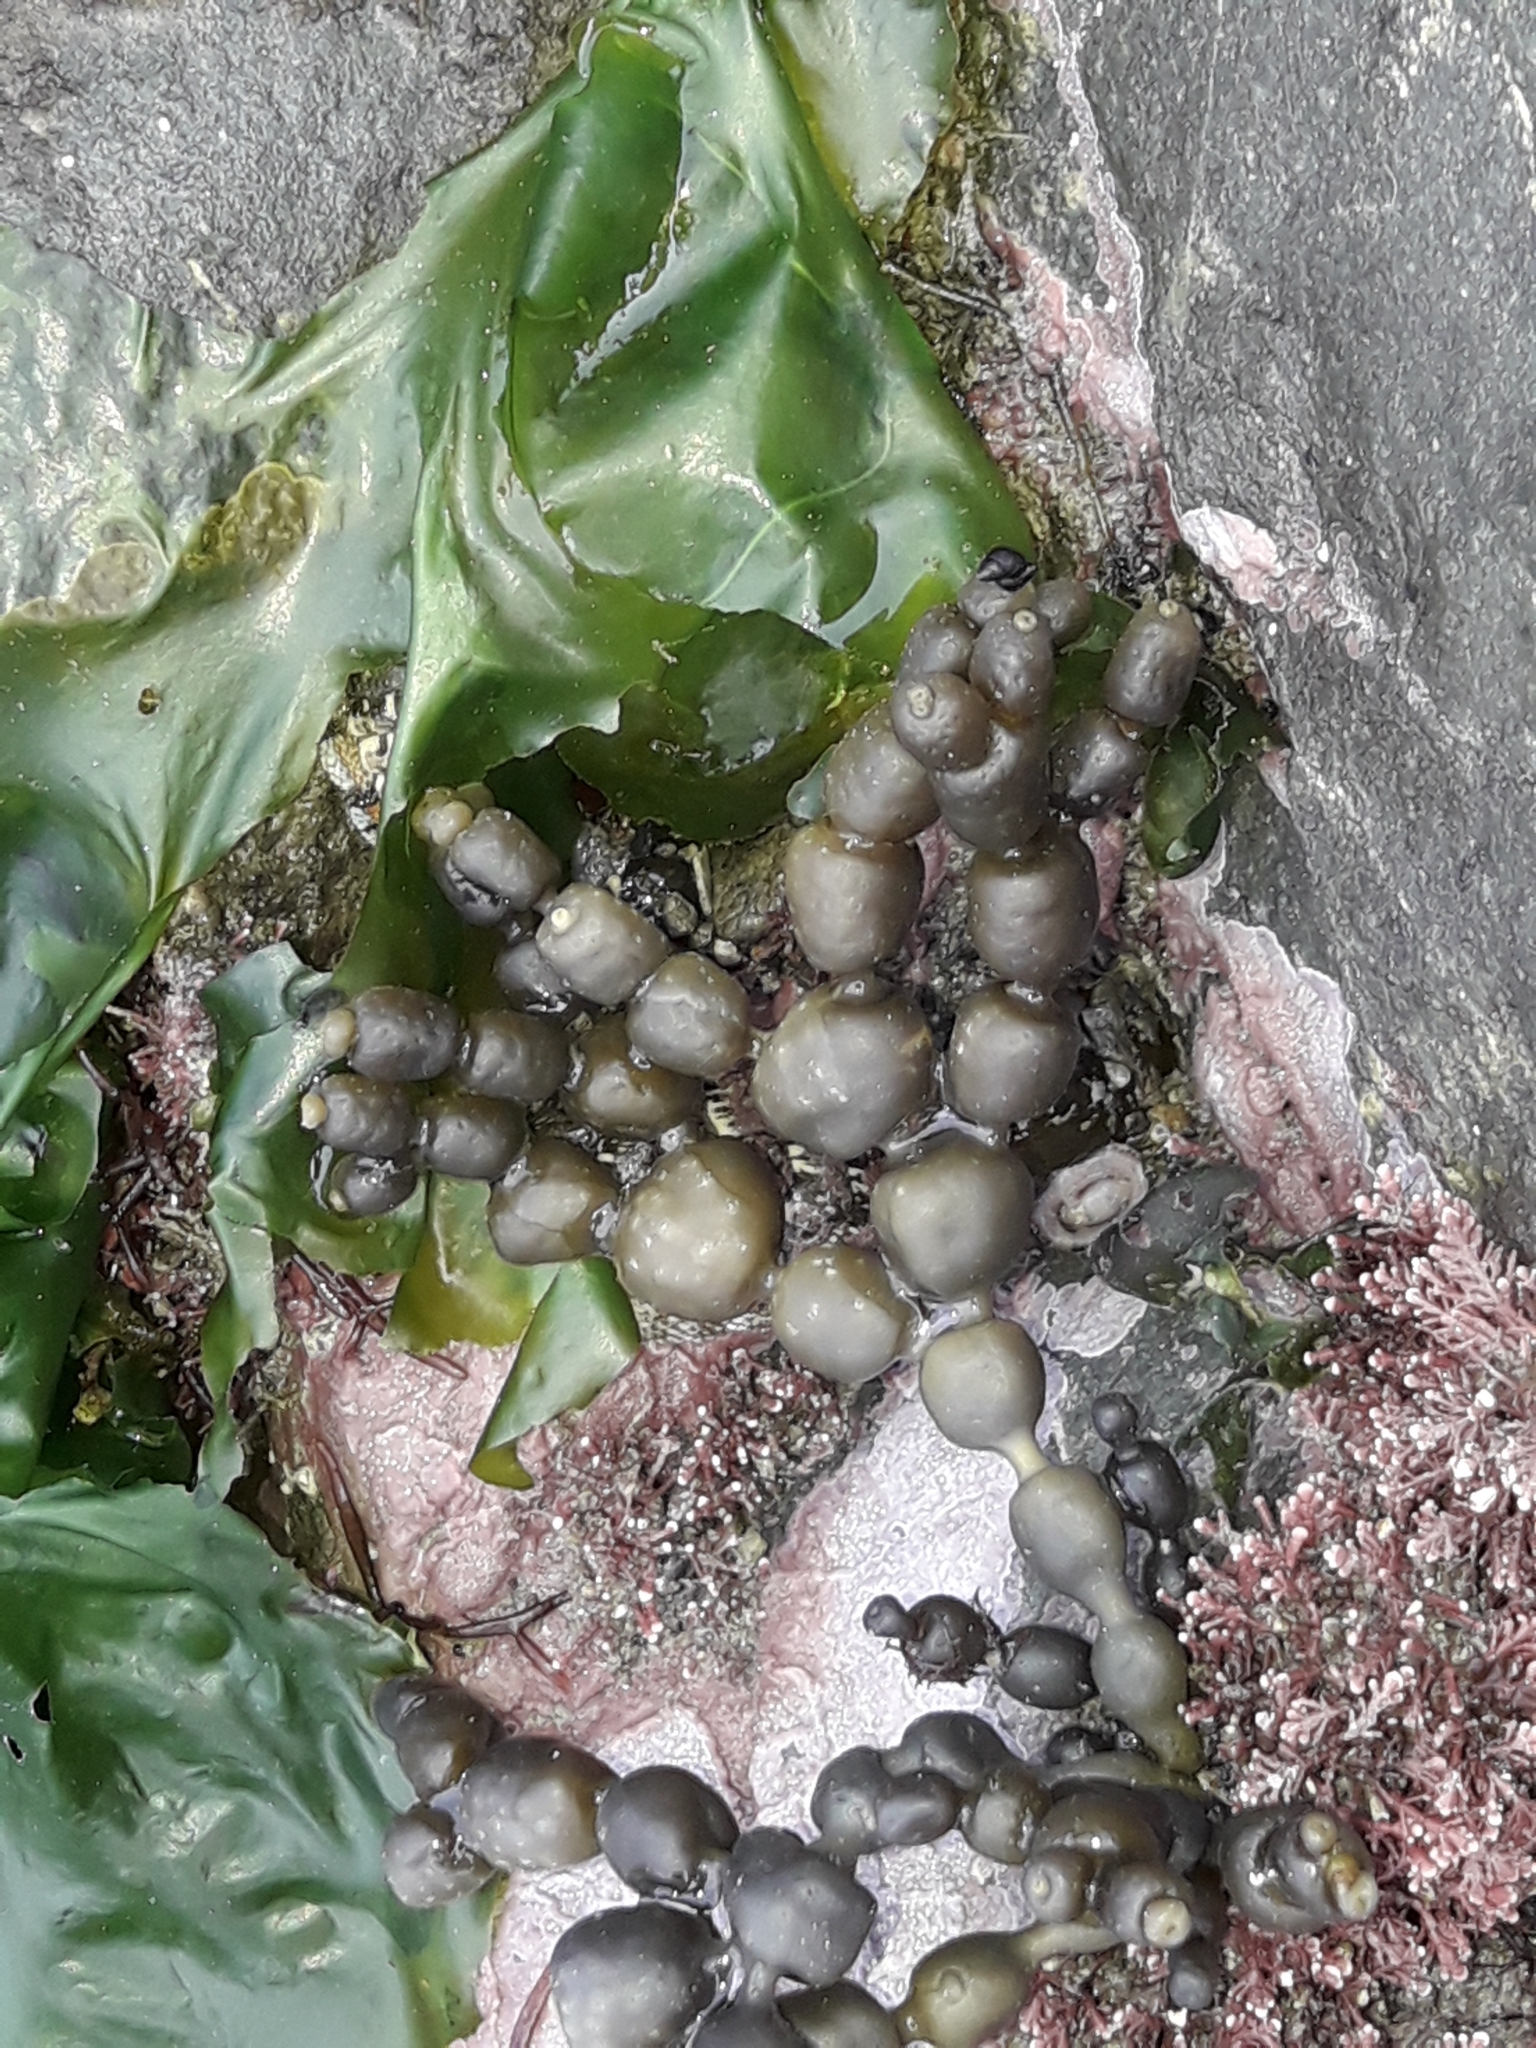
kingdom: Chromista
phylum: Ochrophyta
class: Phaeophyceae
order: Fucales
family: Hormosiraceae
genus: Hormosira
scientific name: Hormosira banksii
